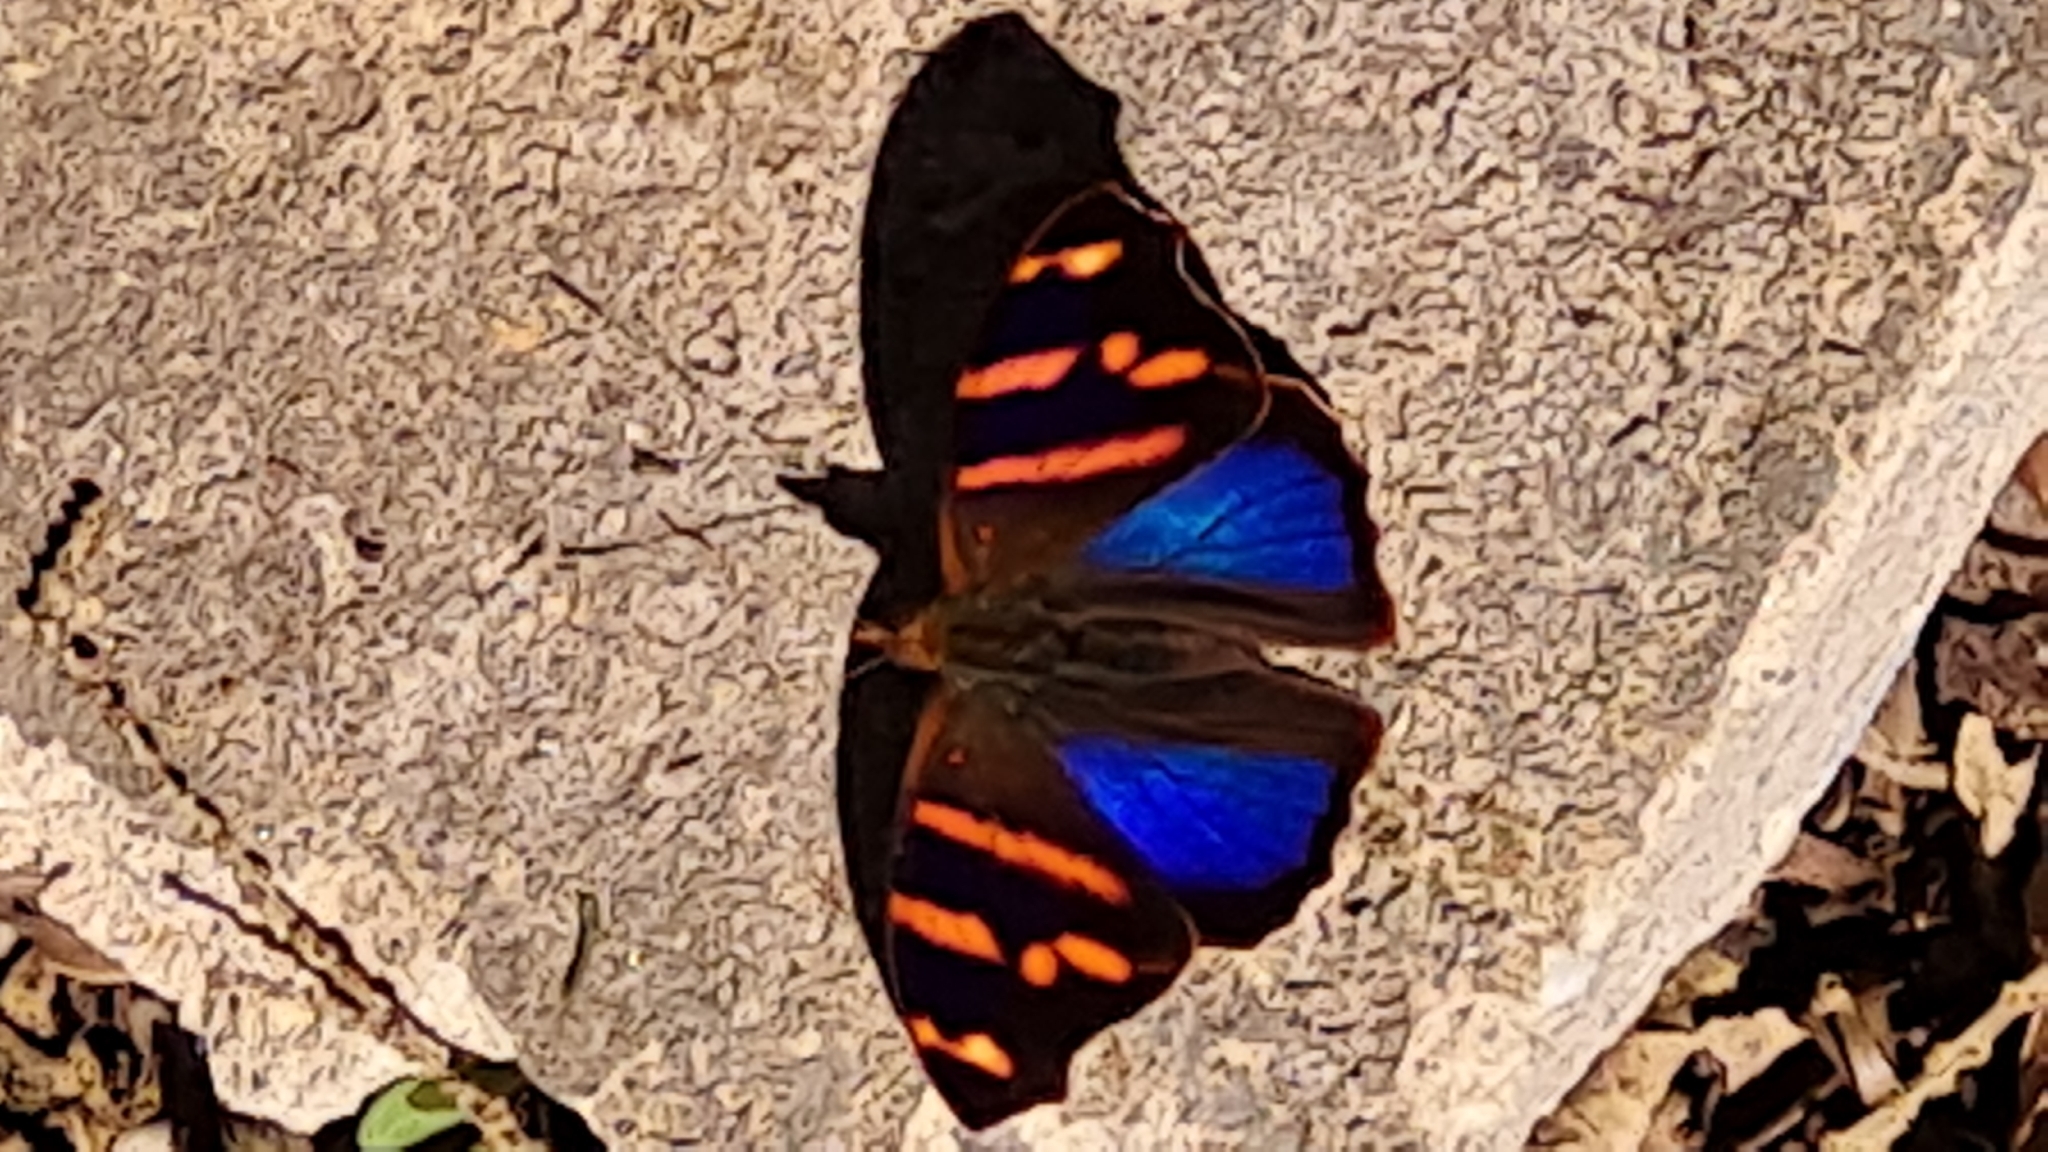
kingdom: Animalia
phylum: Arthropoda
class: Insecta
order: Lepidoptera
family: Nymphalidae
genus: Epiphile
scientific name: Epiphile orea
